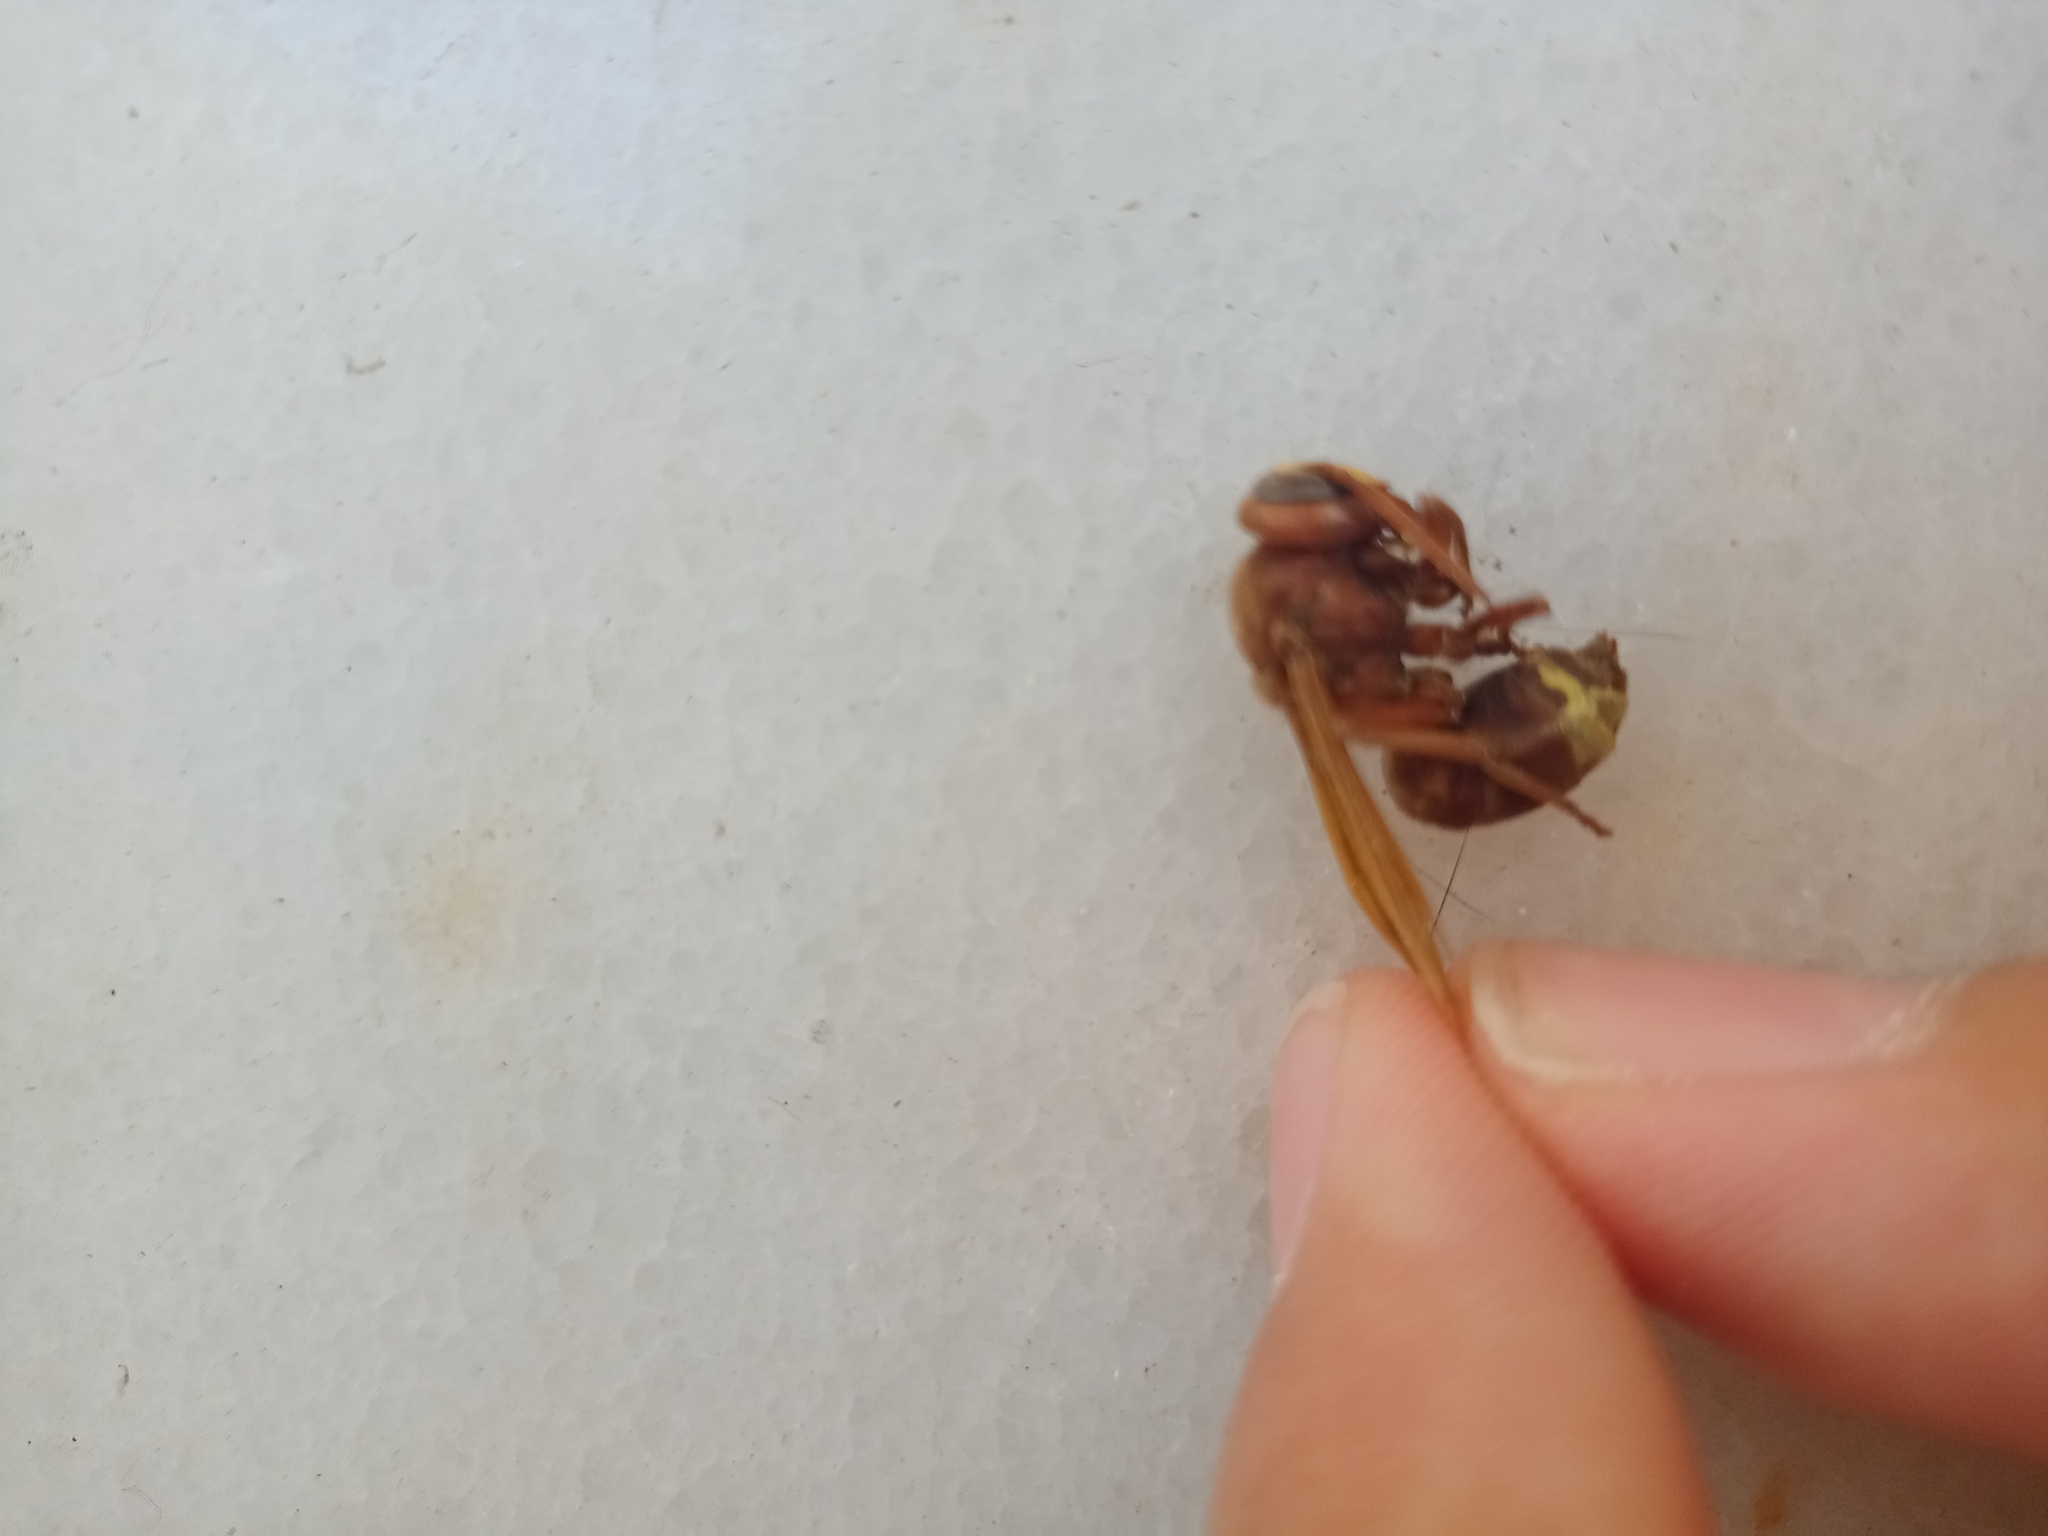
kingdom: Animalia
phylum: Arthropoda
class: Insecta
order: Hymenoptera
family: Vespidae
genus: Vespa
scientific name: Vespa orientalis
